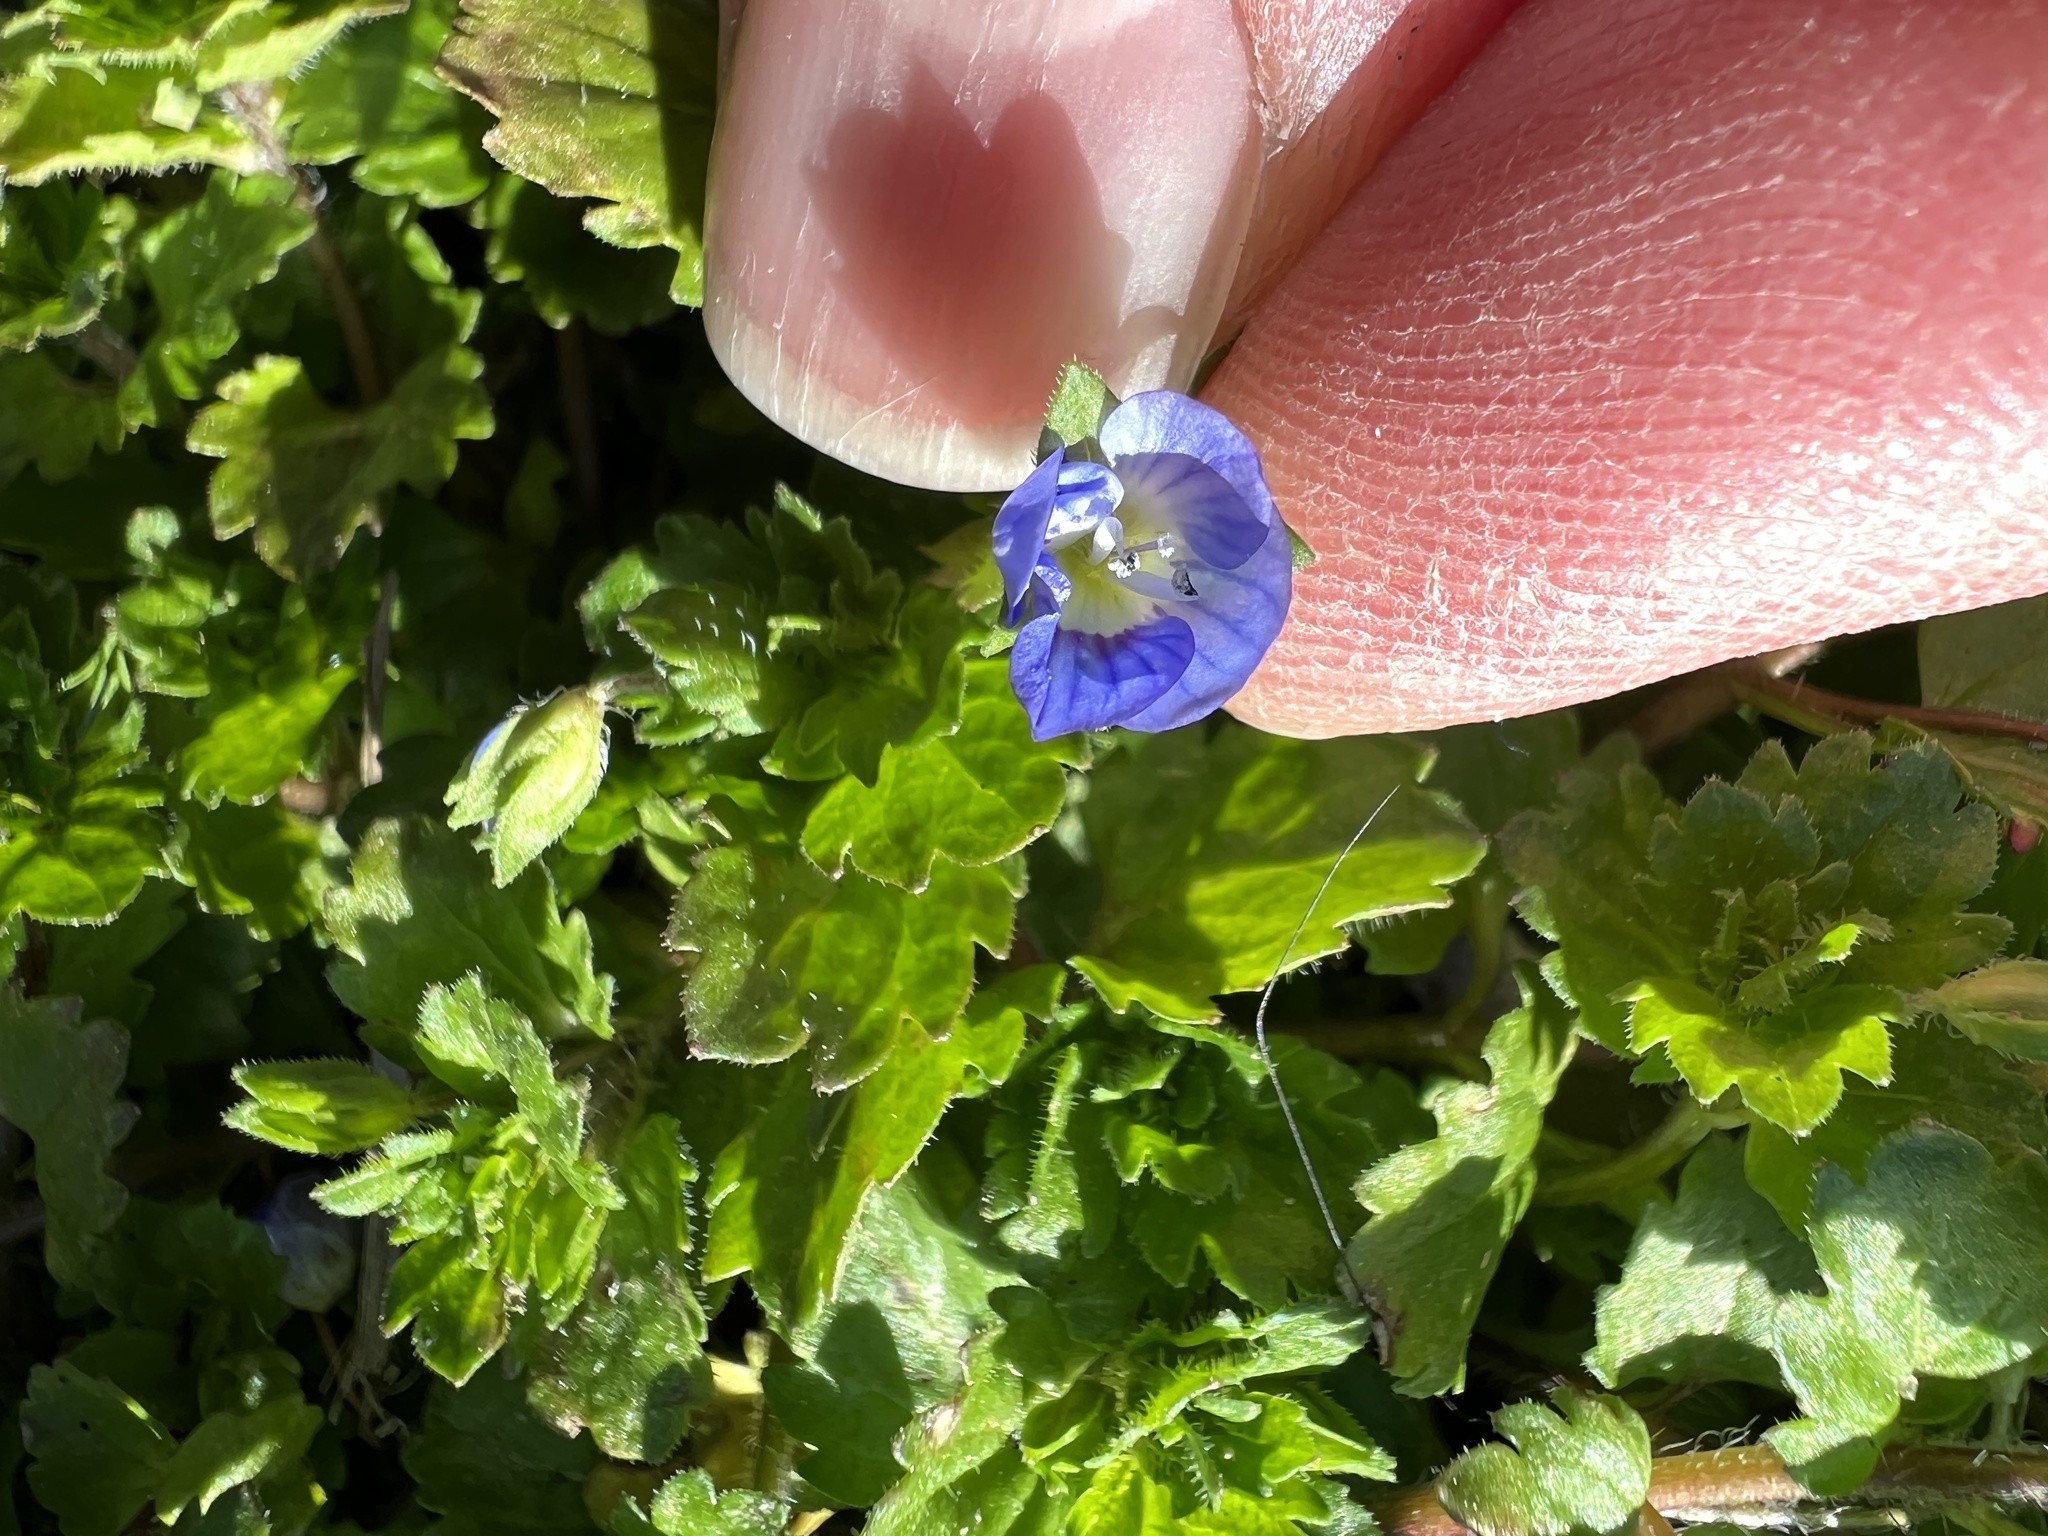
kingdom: Plantae
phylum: Tracheophyta
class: Magnoliopsida
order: Lamiales
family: Plantaginaceae
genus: Veronica
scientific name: Veronica persica
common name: Common field-speedwell
